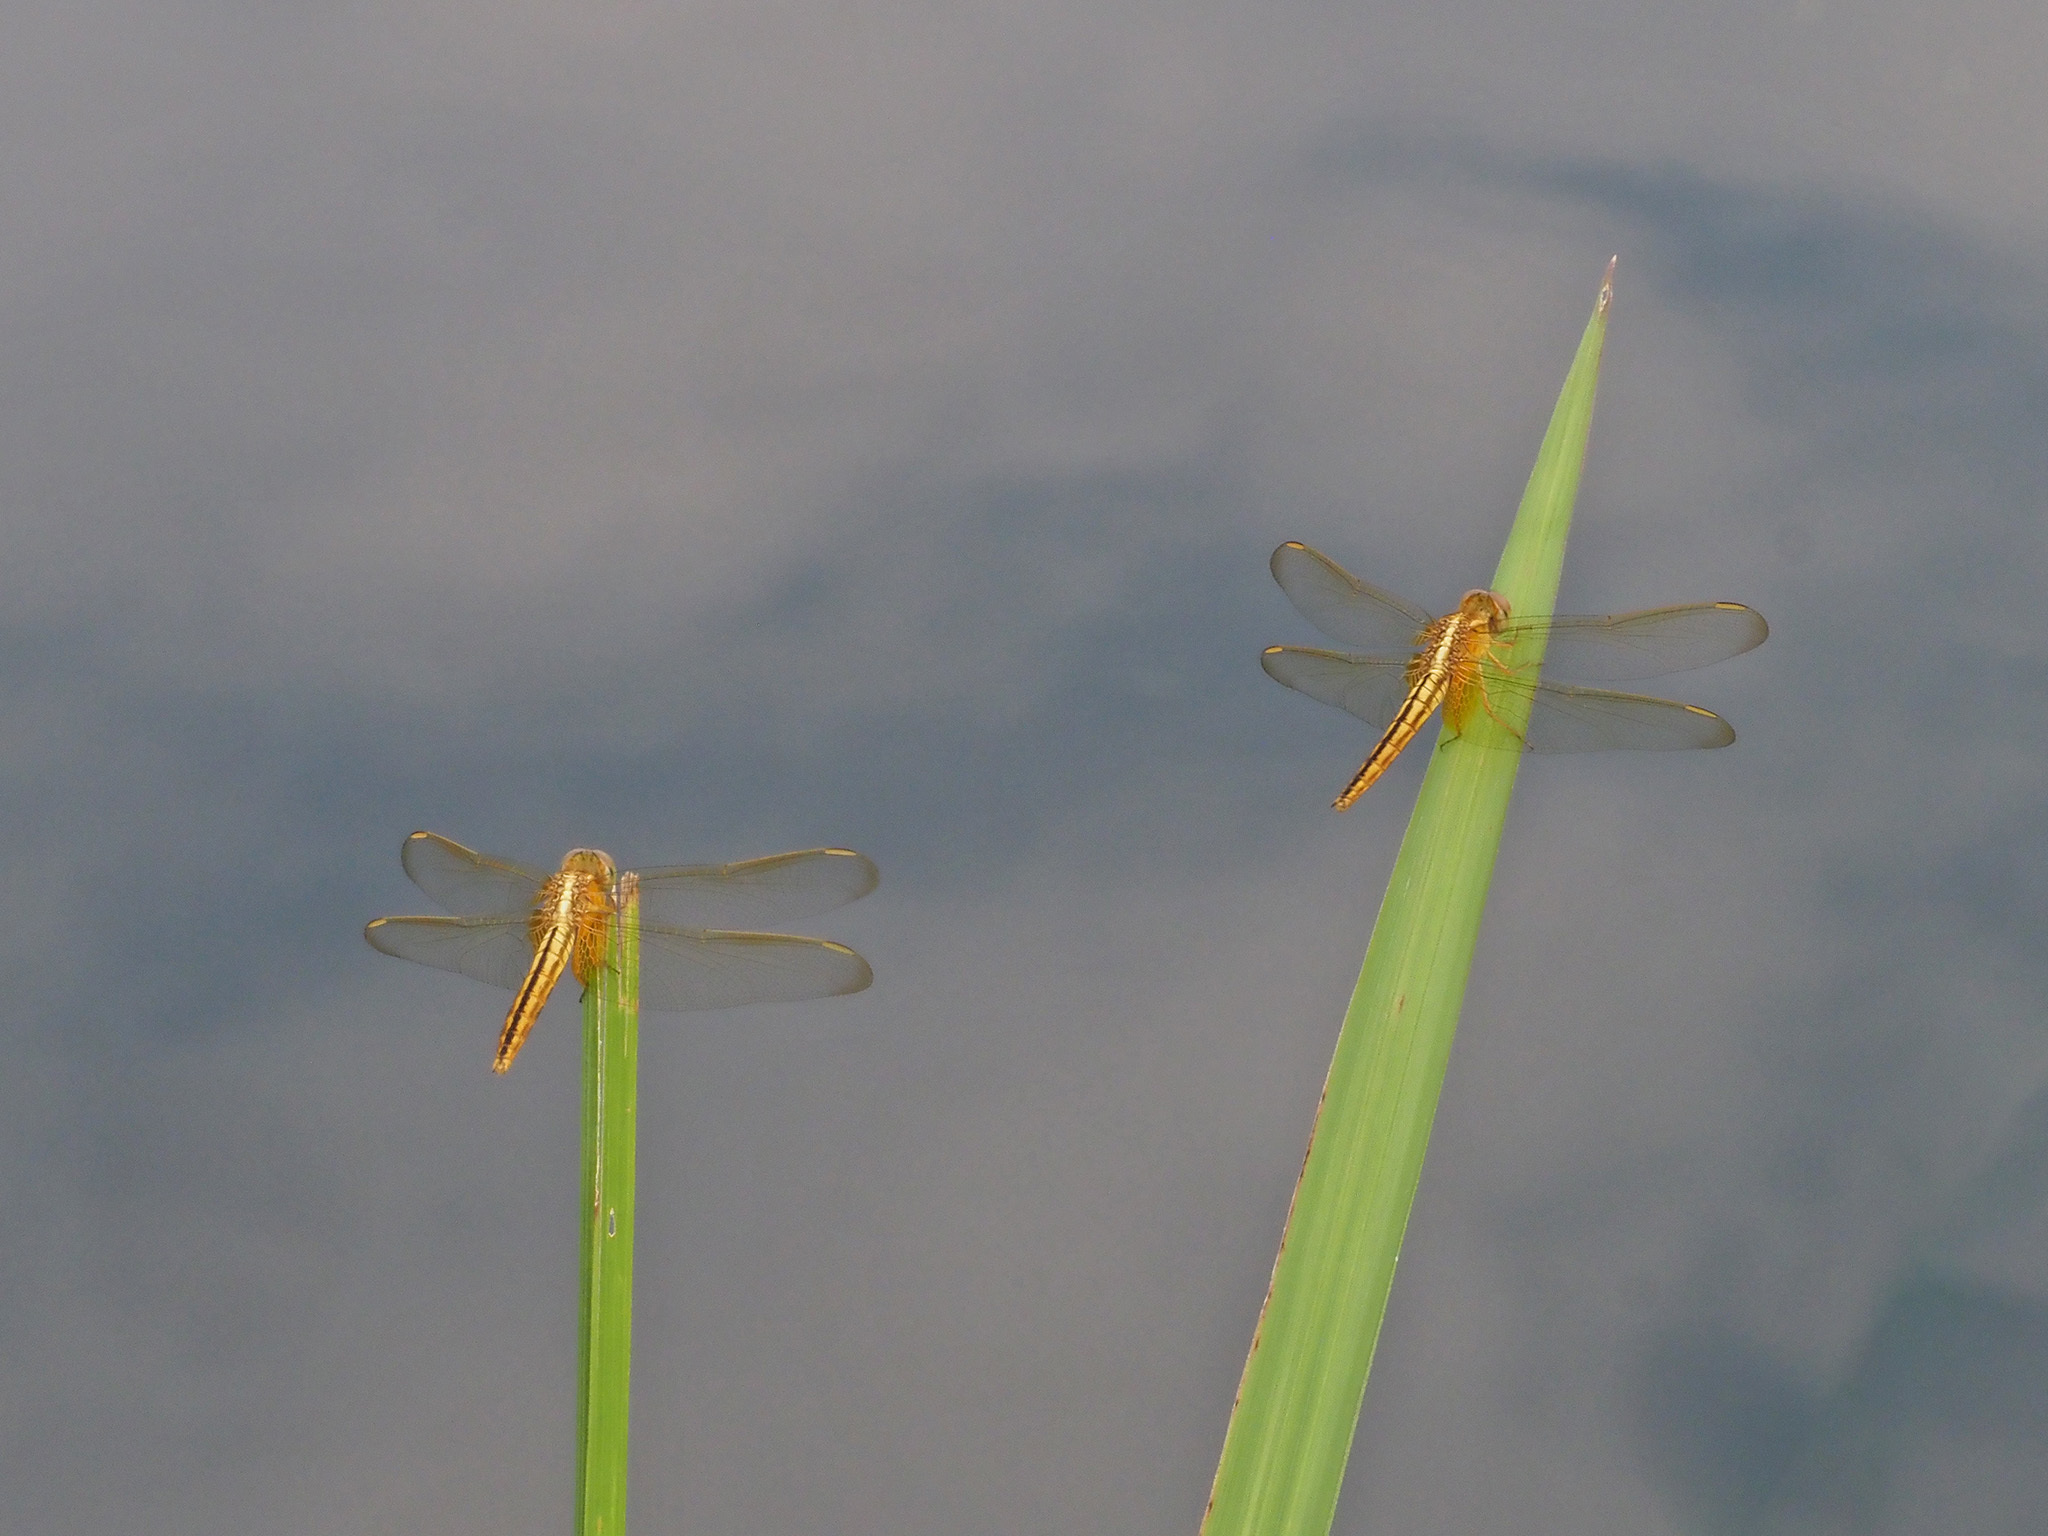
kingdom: Animalia
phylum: Arthropoda
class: Insecta
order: Odonata
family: Libellulidae
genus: Crocothemis
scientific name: Crocothemis servilia
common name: Scarlet skimmer
